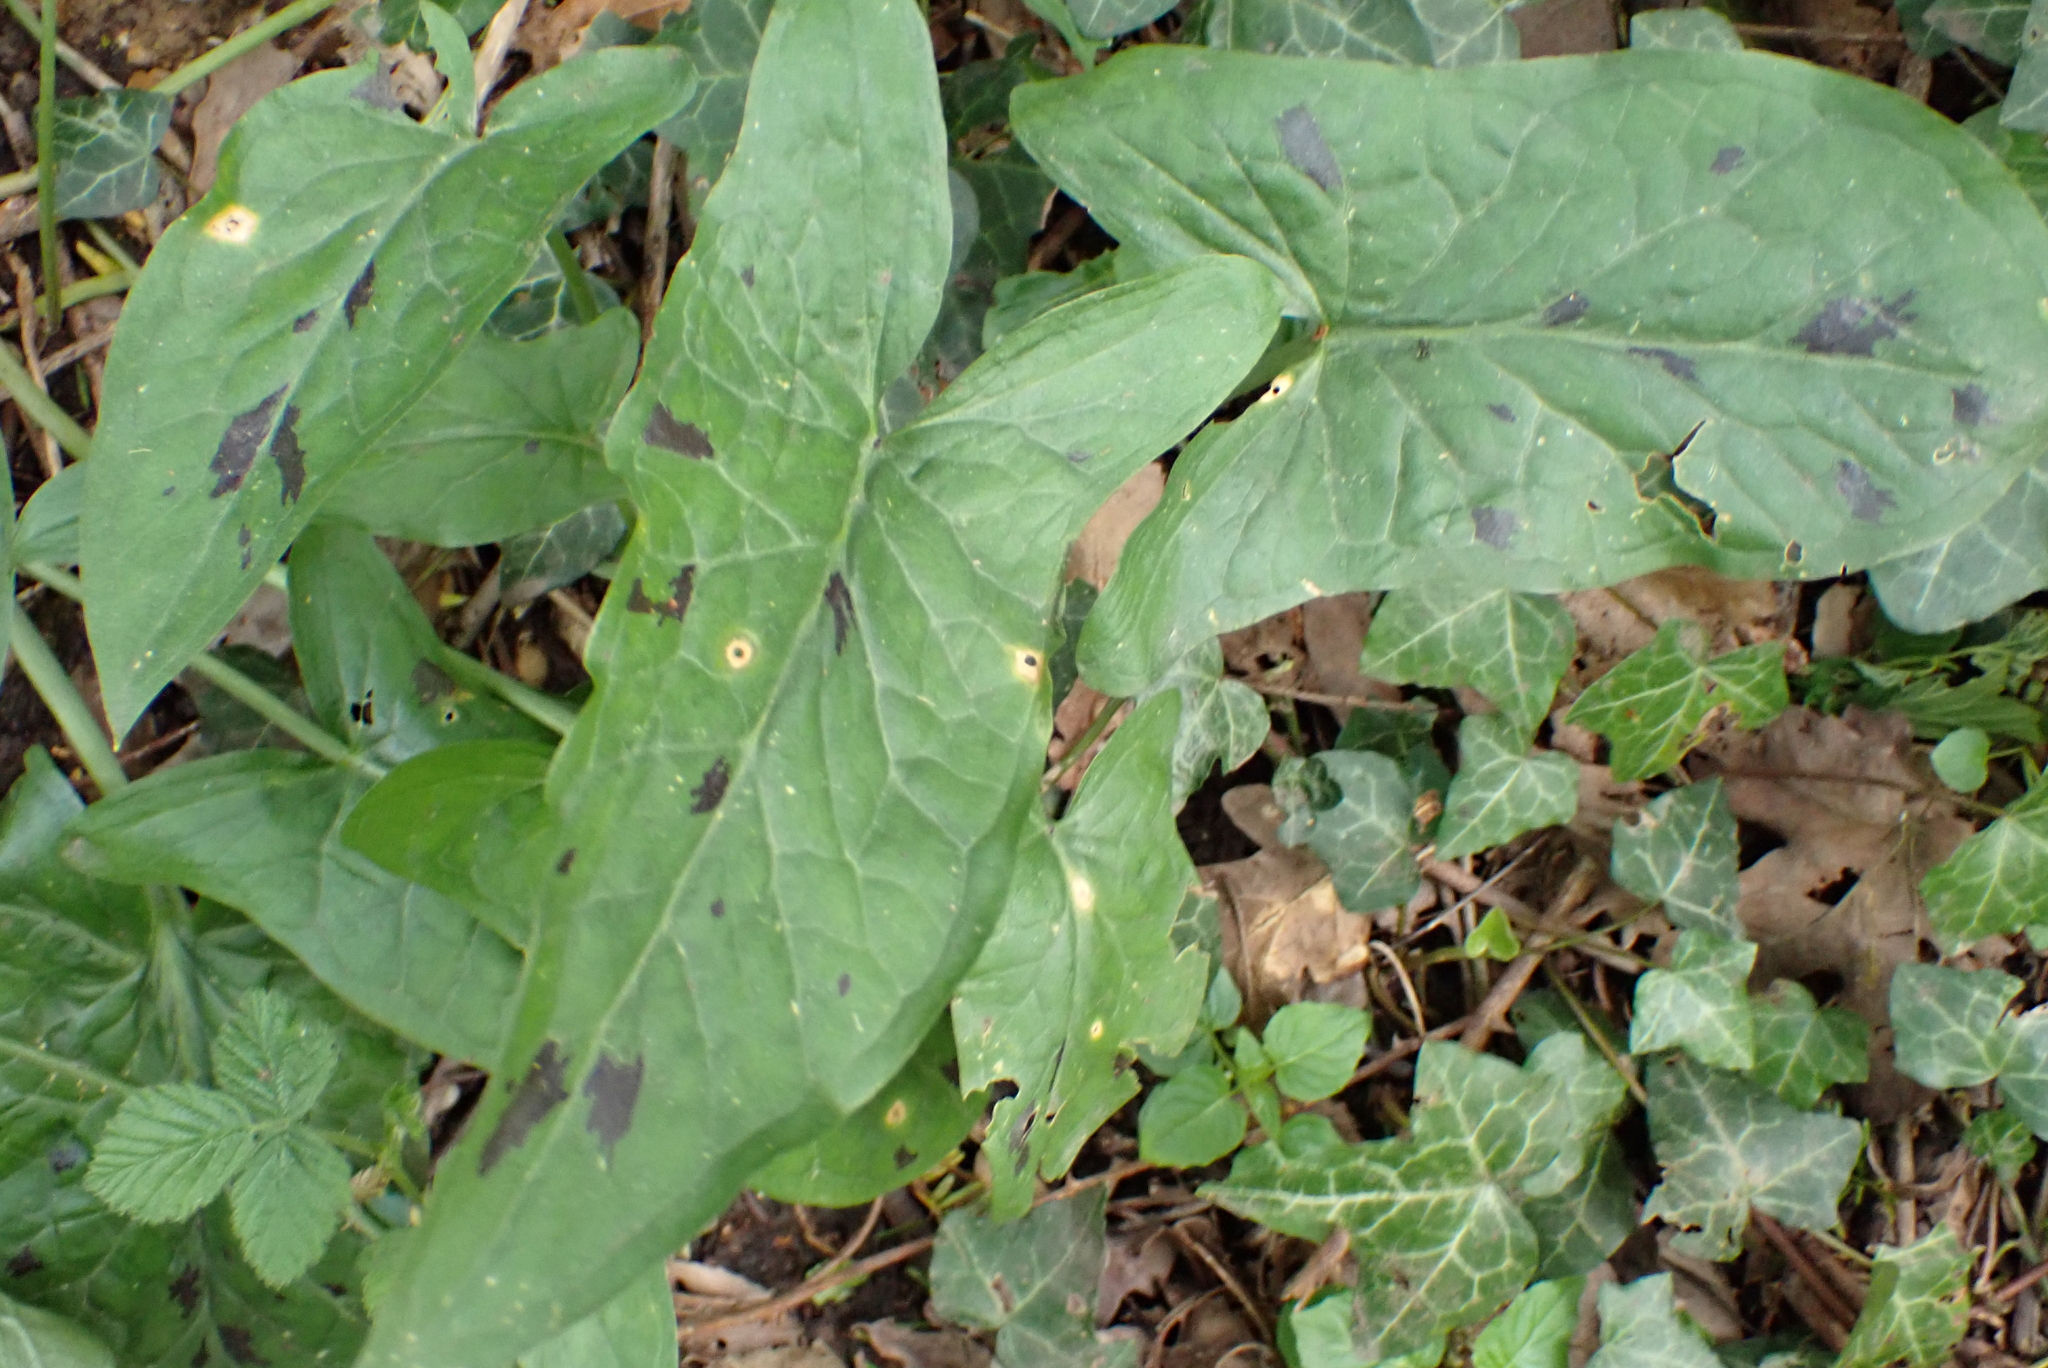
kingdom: Plantae
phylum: Tracheophyta
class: Liliopsida
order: Alismatales
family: Araceae
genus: Arum
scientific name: Arum maculatum
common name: Lords-and-ladies
